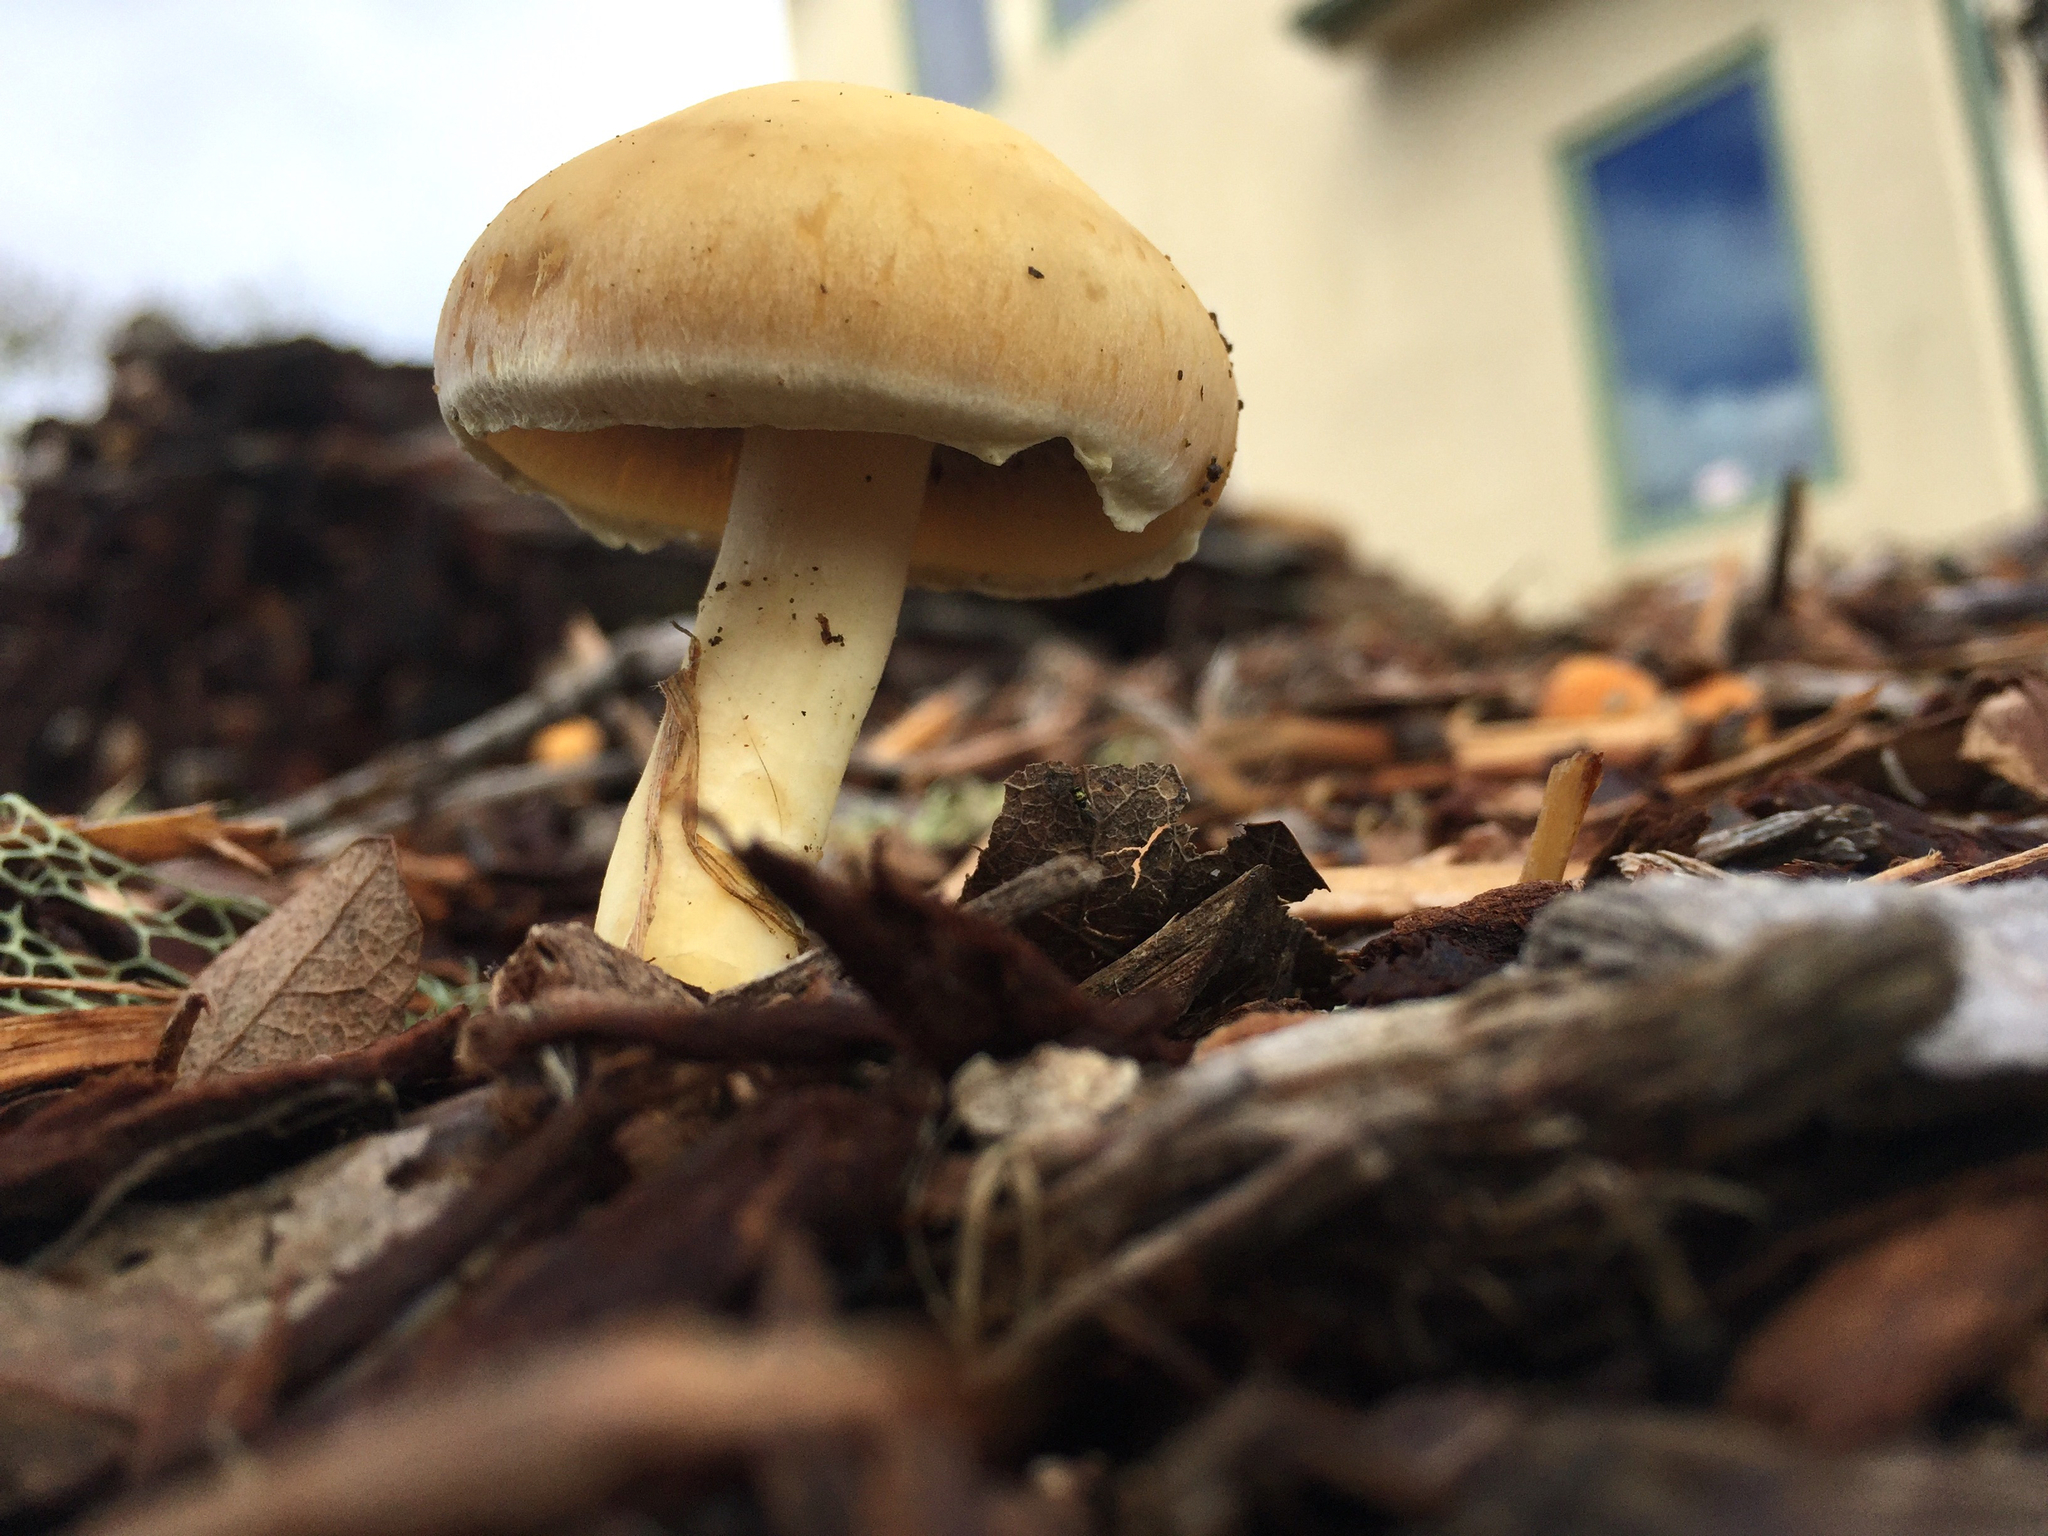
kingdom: Fungi
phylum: Basidiomycota
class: Agaricomycetes
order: Agaricales
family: Strophariaceae
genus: Leratiomyces
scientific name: Leratiomyces percevalii
